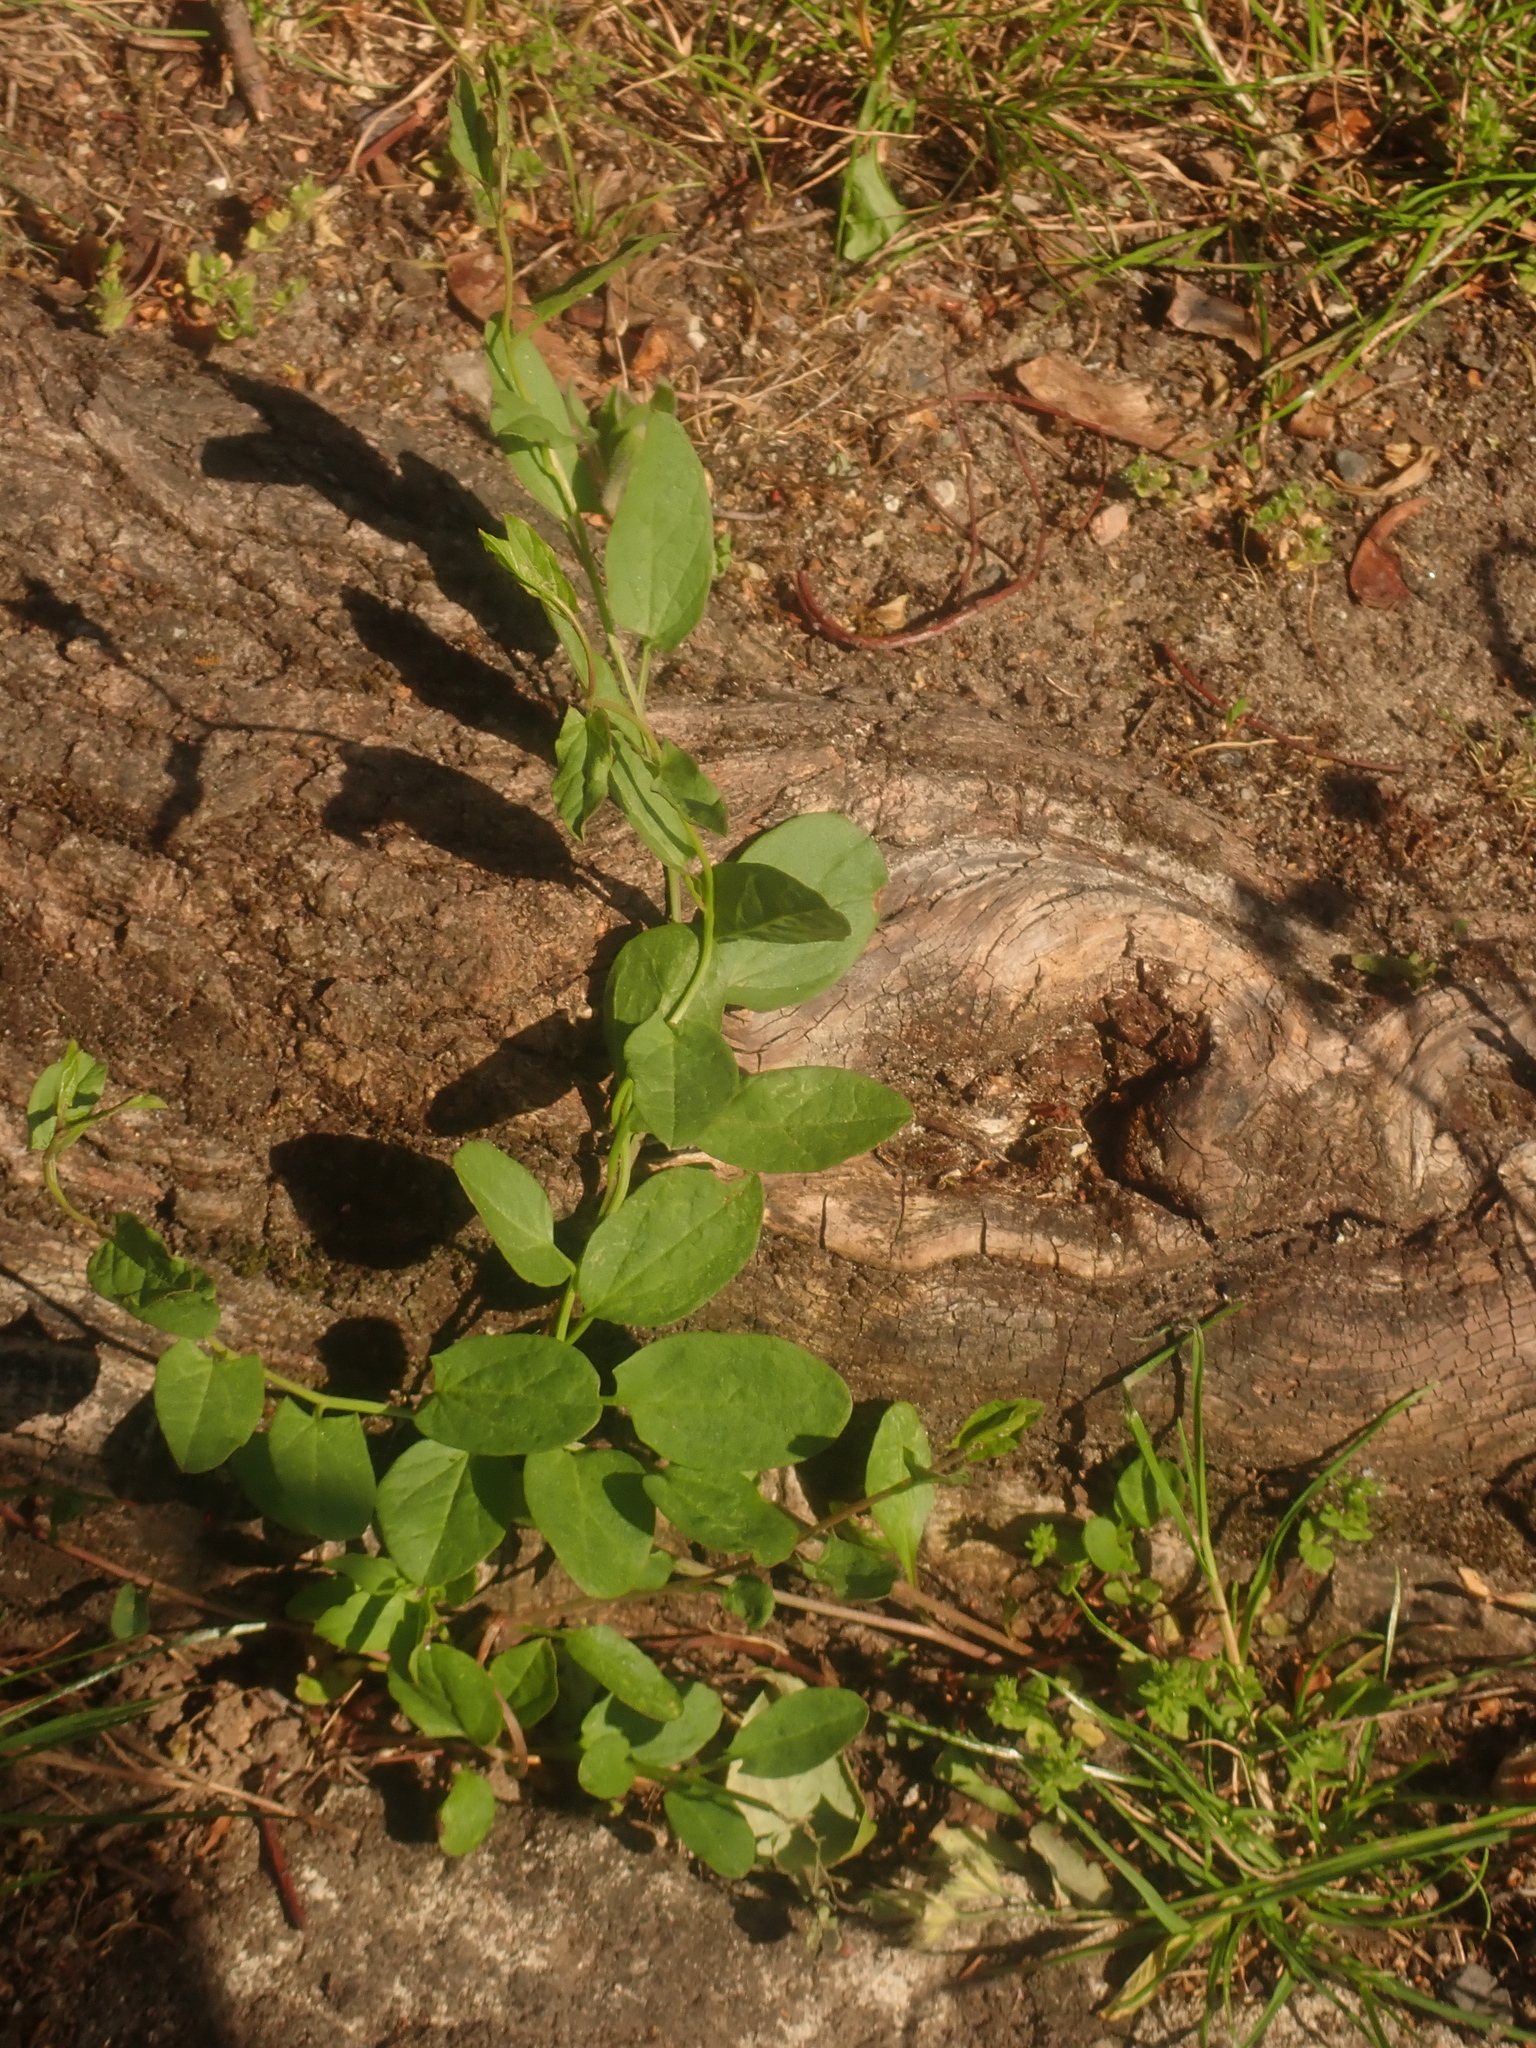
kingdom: Plantae
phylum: Tracheophyta
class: Magnoliopsida
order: Solanales
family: Convolvulaceae
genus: Convolvulus
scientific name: Convolvulus arvensis
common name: Field bindweed
